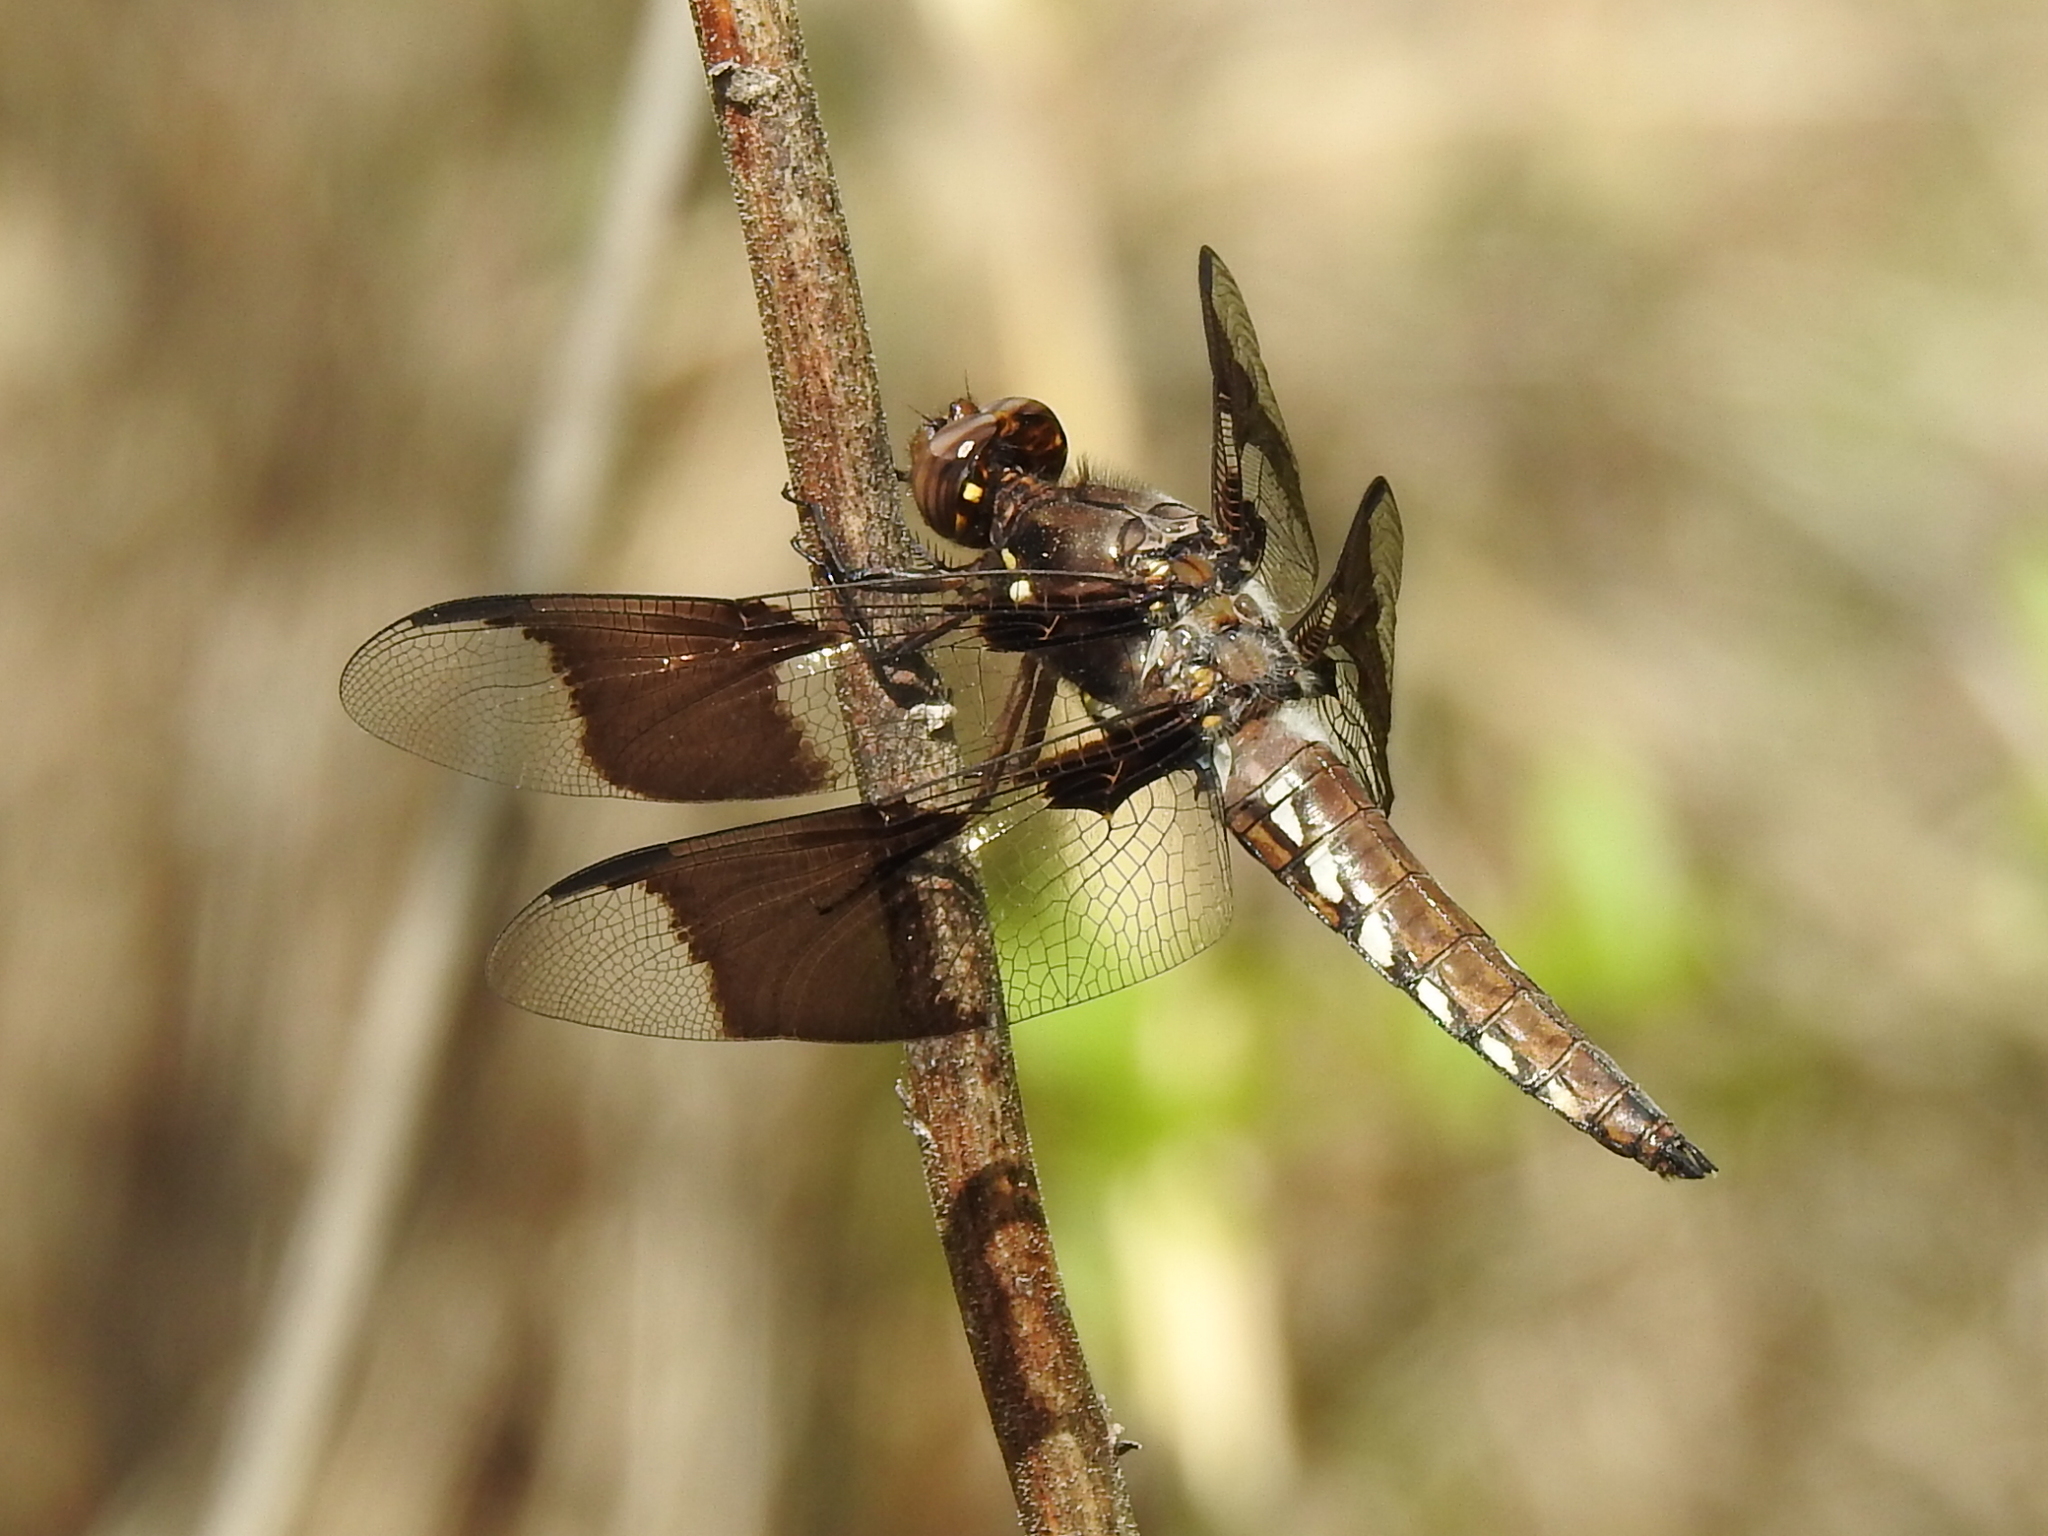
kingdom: Animalia
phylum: Arthropoda
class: Insecta
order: Odonata
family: Libellulidae
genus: Plathemis
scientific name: Plathemis lydia
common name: Common whitetail
